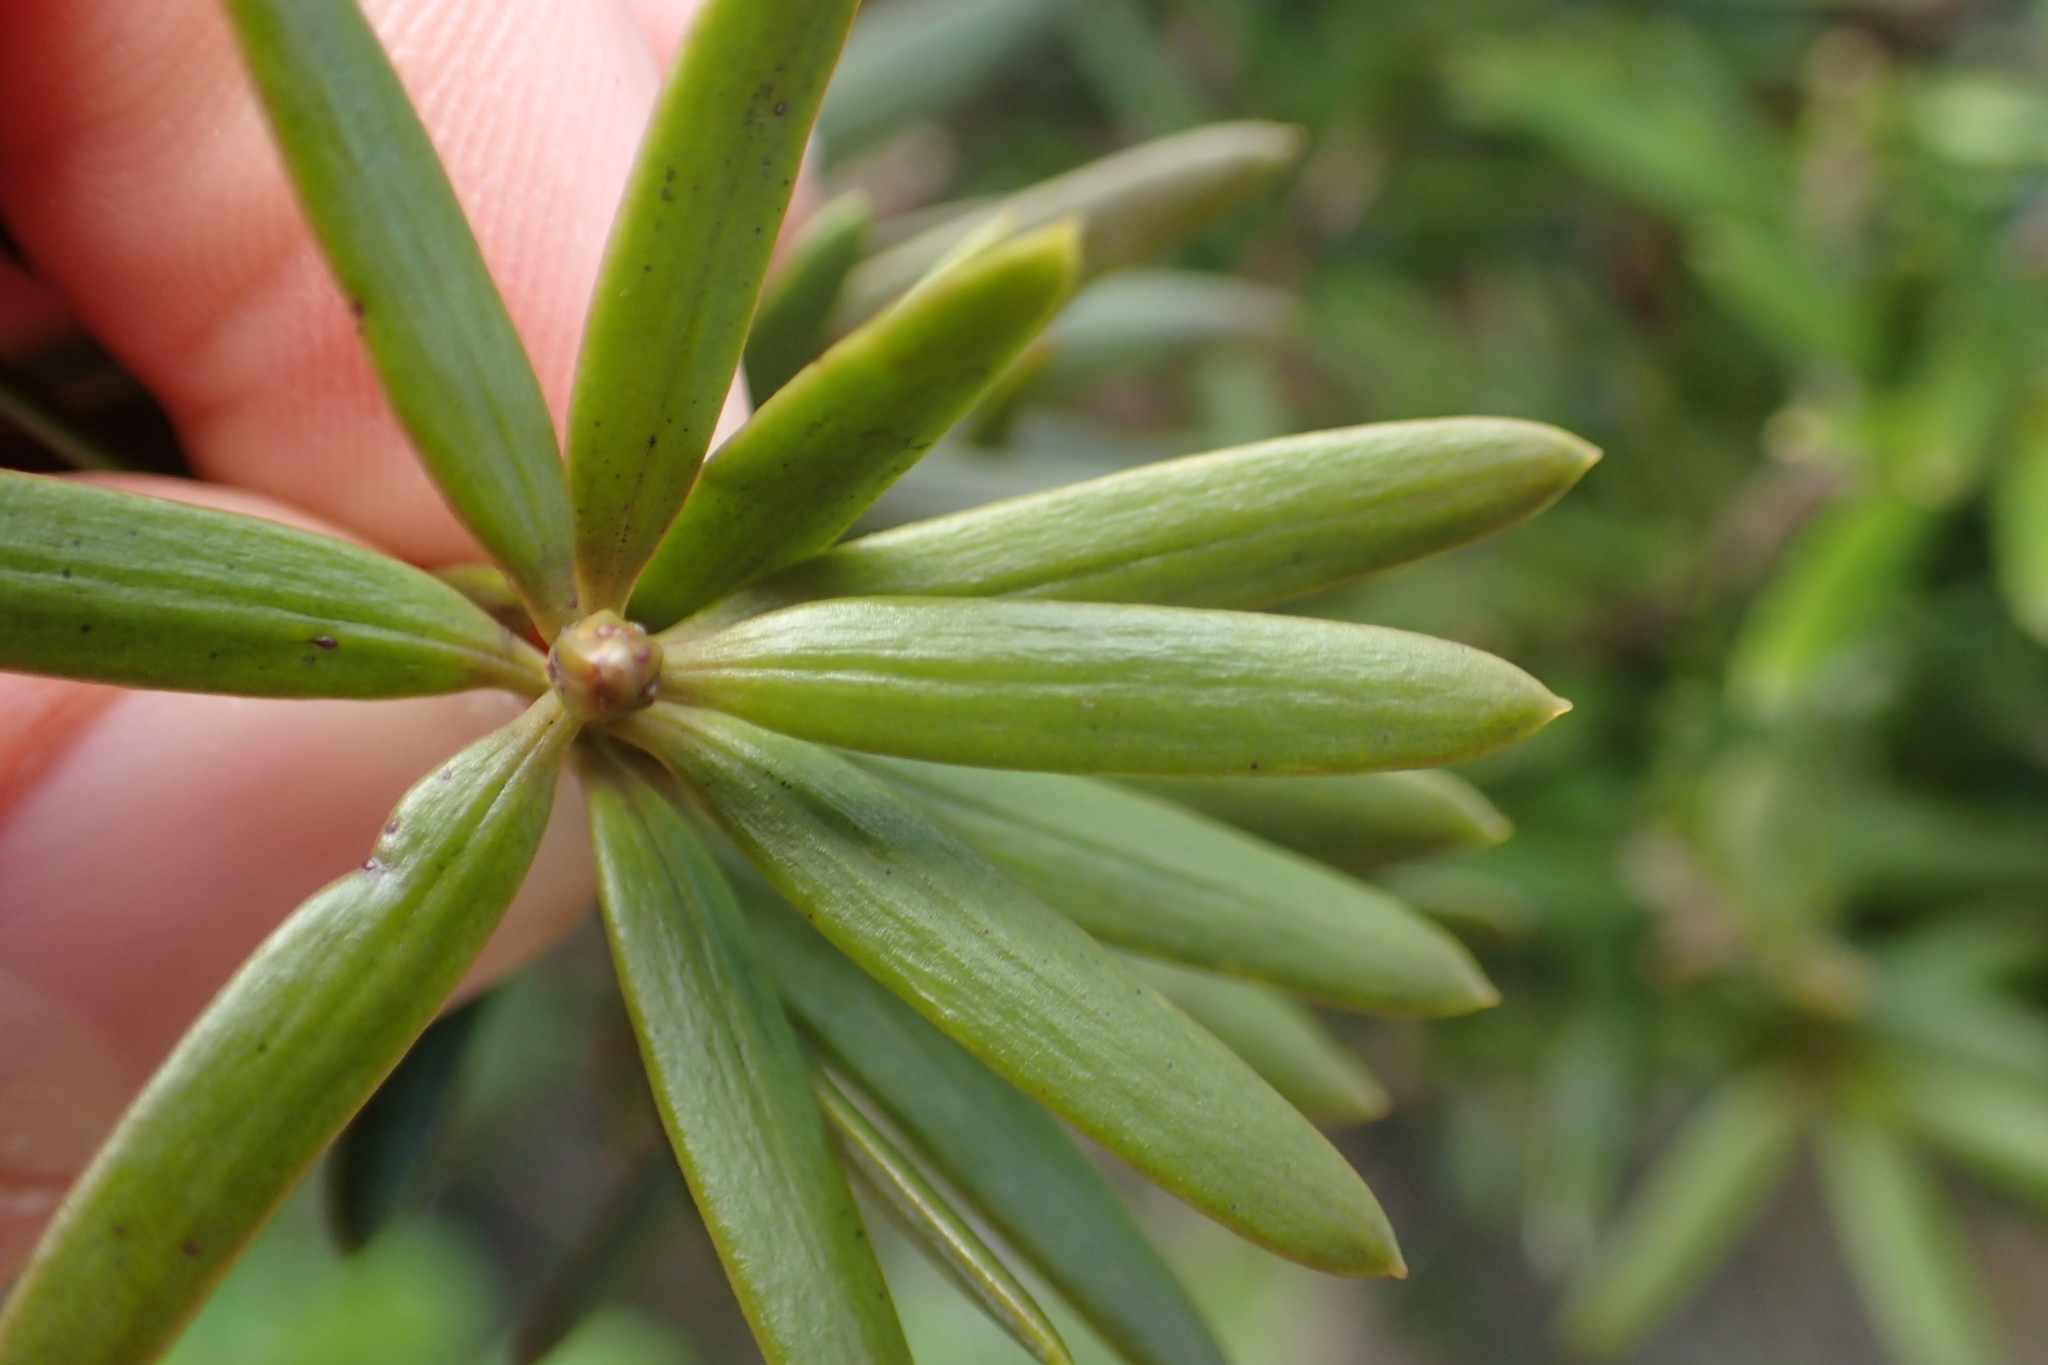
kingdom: Plantae
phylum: Tracheophyta
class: Pinopsida
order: Pinales
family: Podocarpaceae
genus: Podocarpus
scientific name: Podocarpus laetus
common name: Hall's totara
